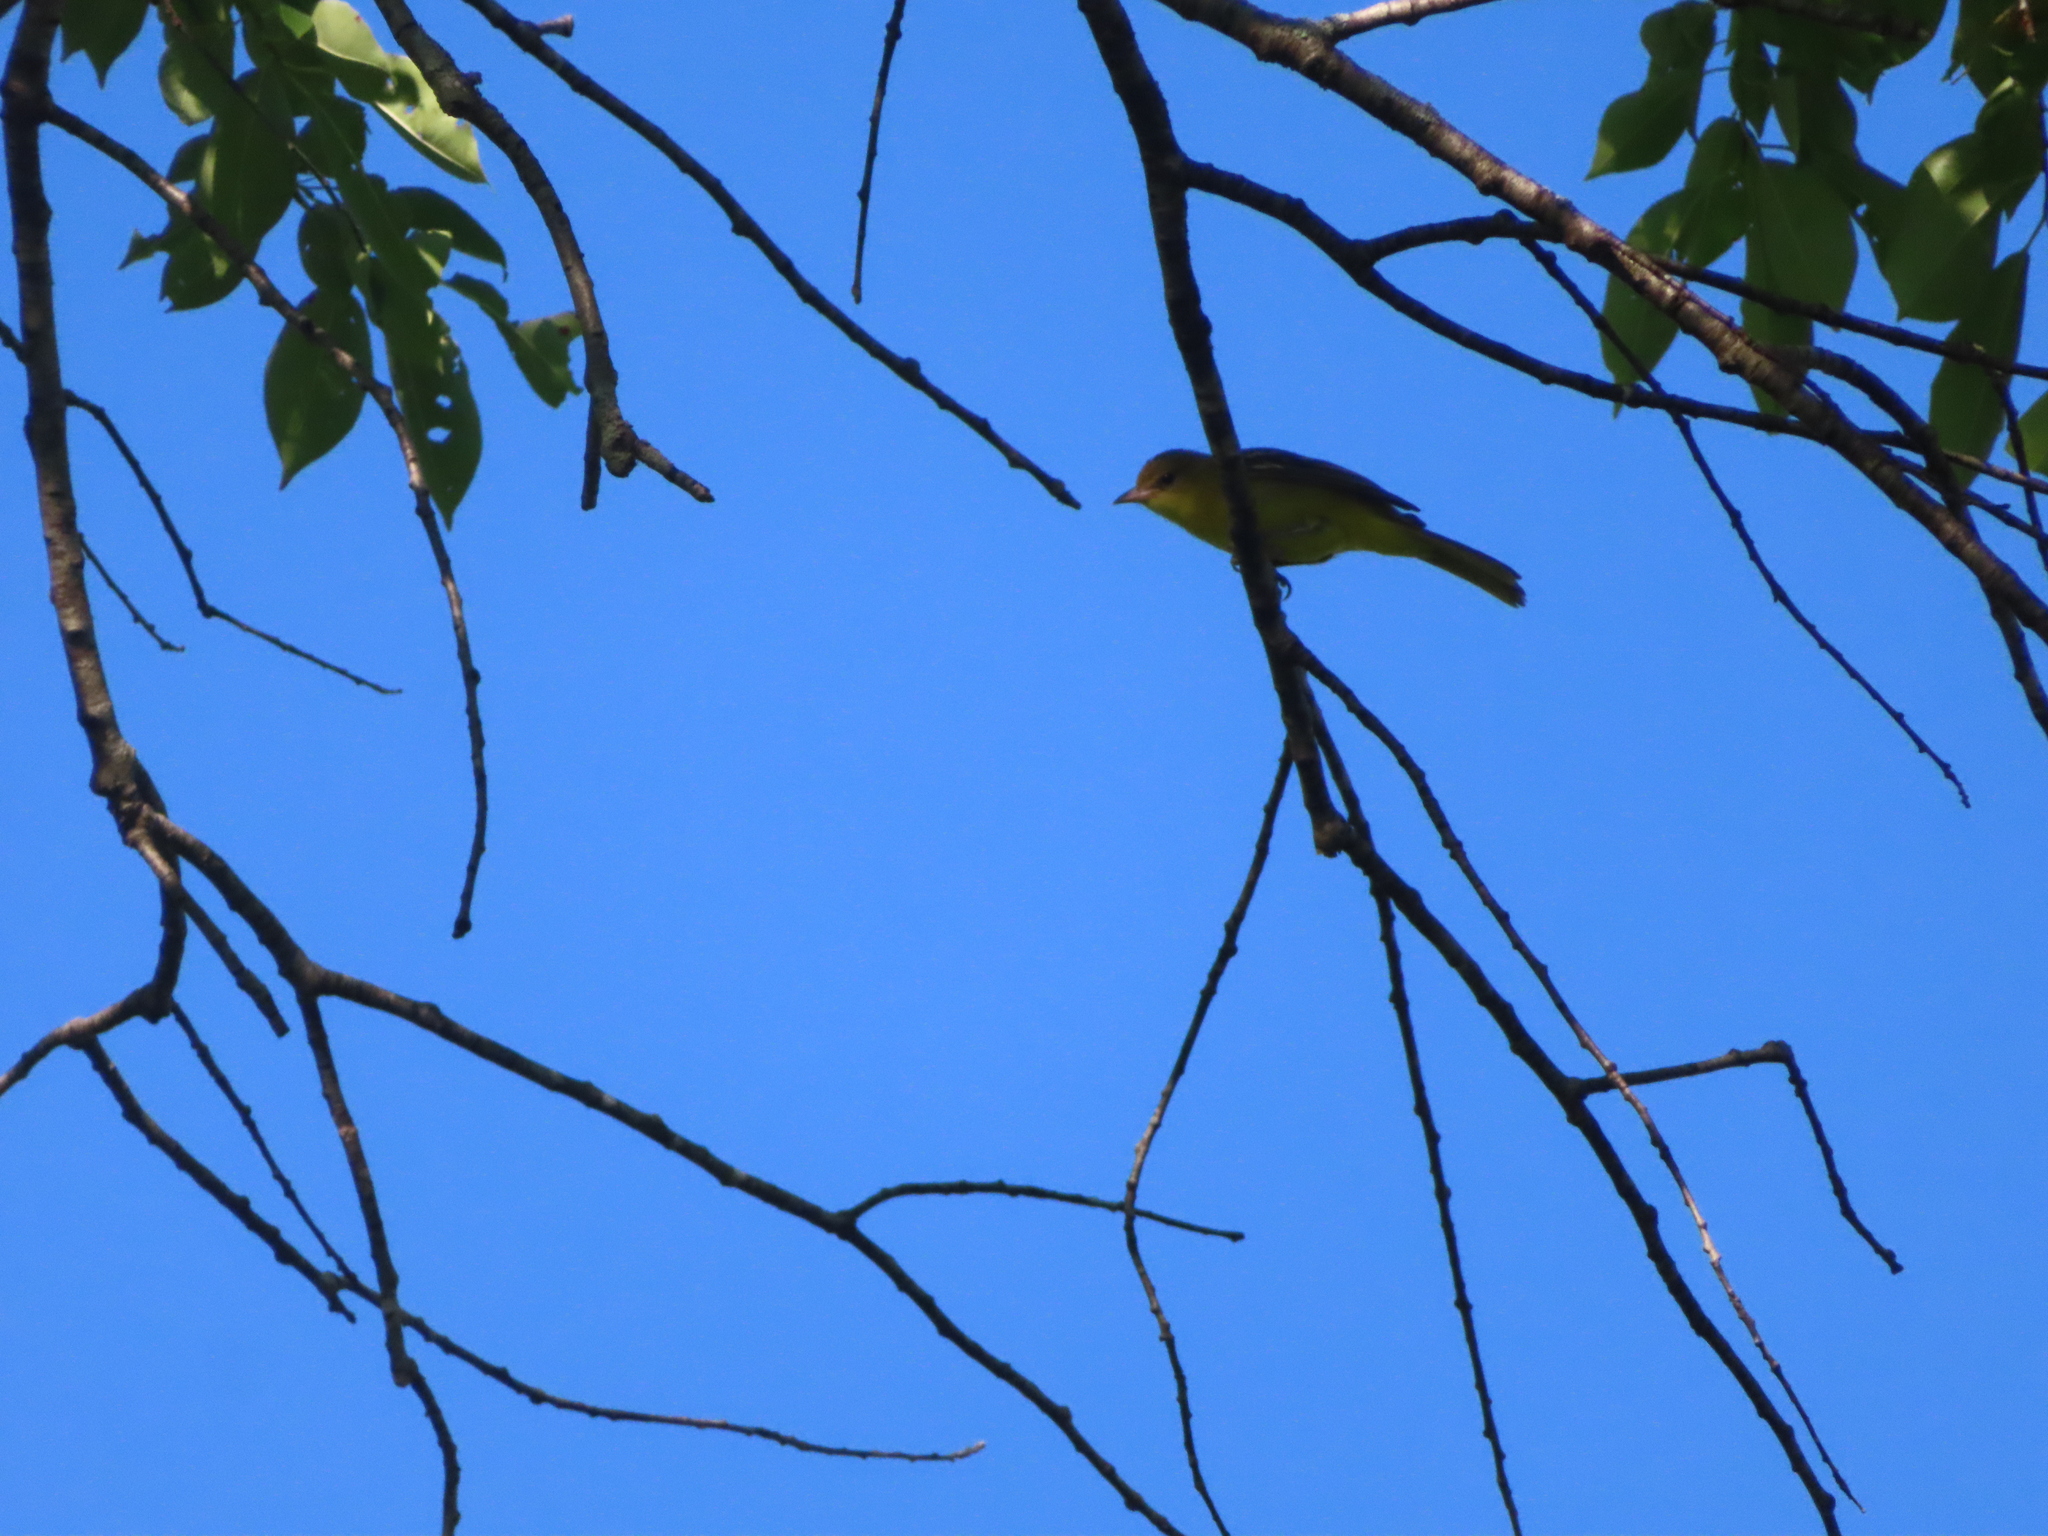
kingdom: Animalia
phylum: Chordata
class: Aves
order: Passeriformes
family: Icteridae
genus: Icterus
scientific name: Icterus spurius
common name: Orchard oriole
